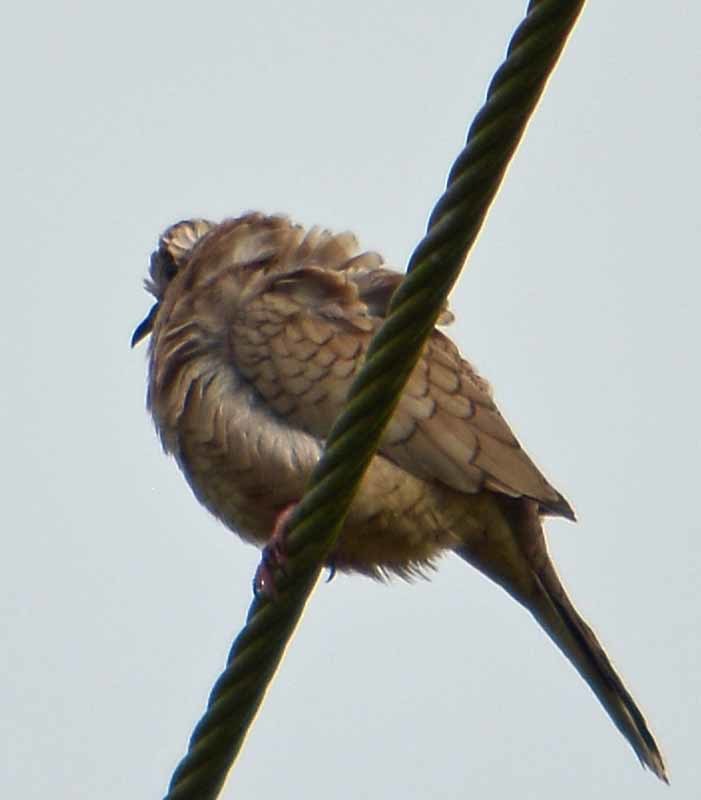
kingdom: Animalia
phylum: Chordata
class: Aves
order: Columbiformes
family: Columbidae
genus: Columbina
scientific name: Columbina inca
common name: Inca dove
